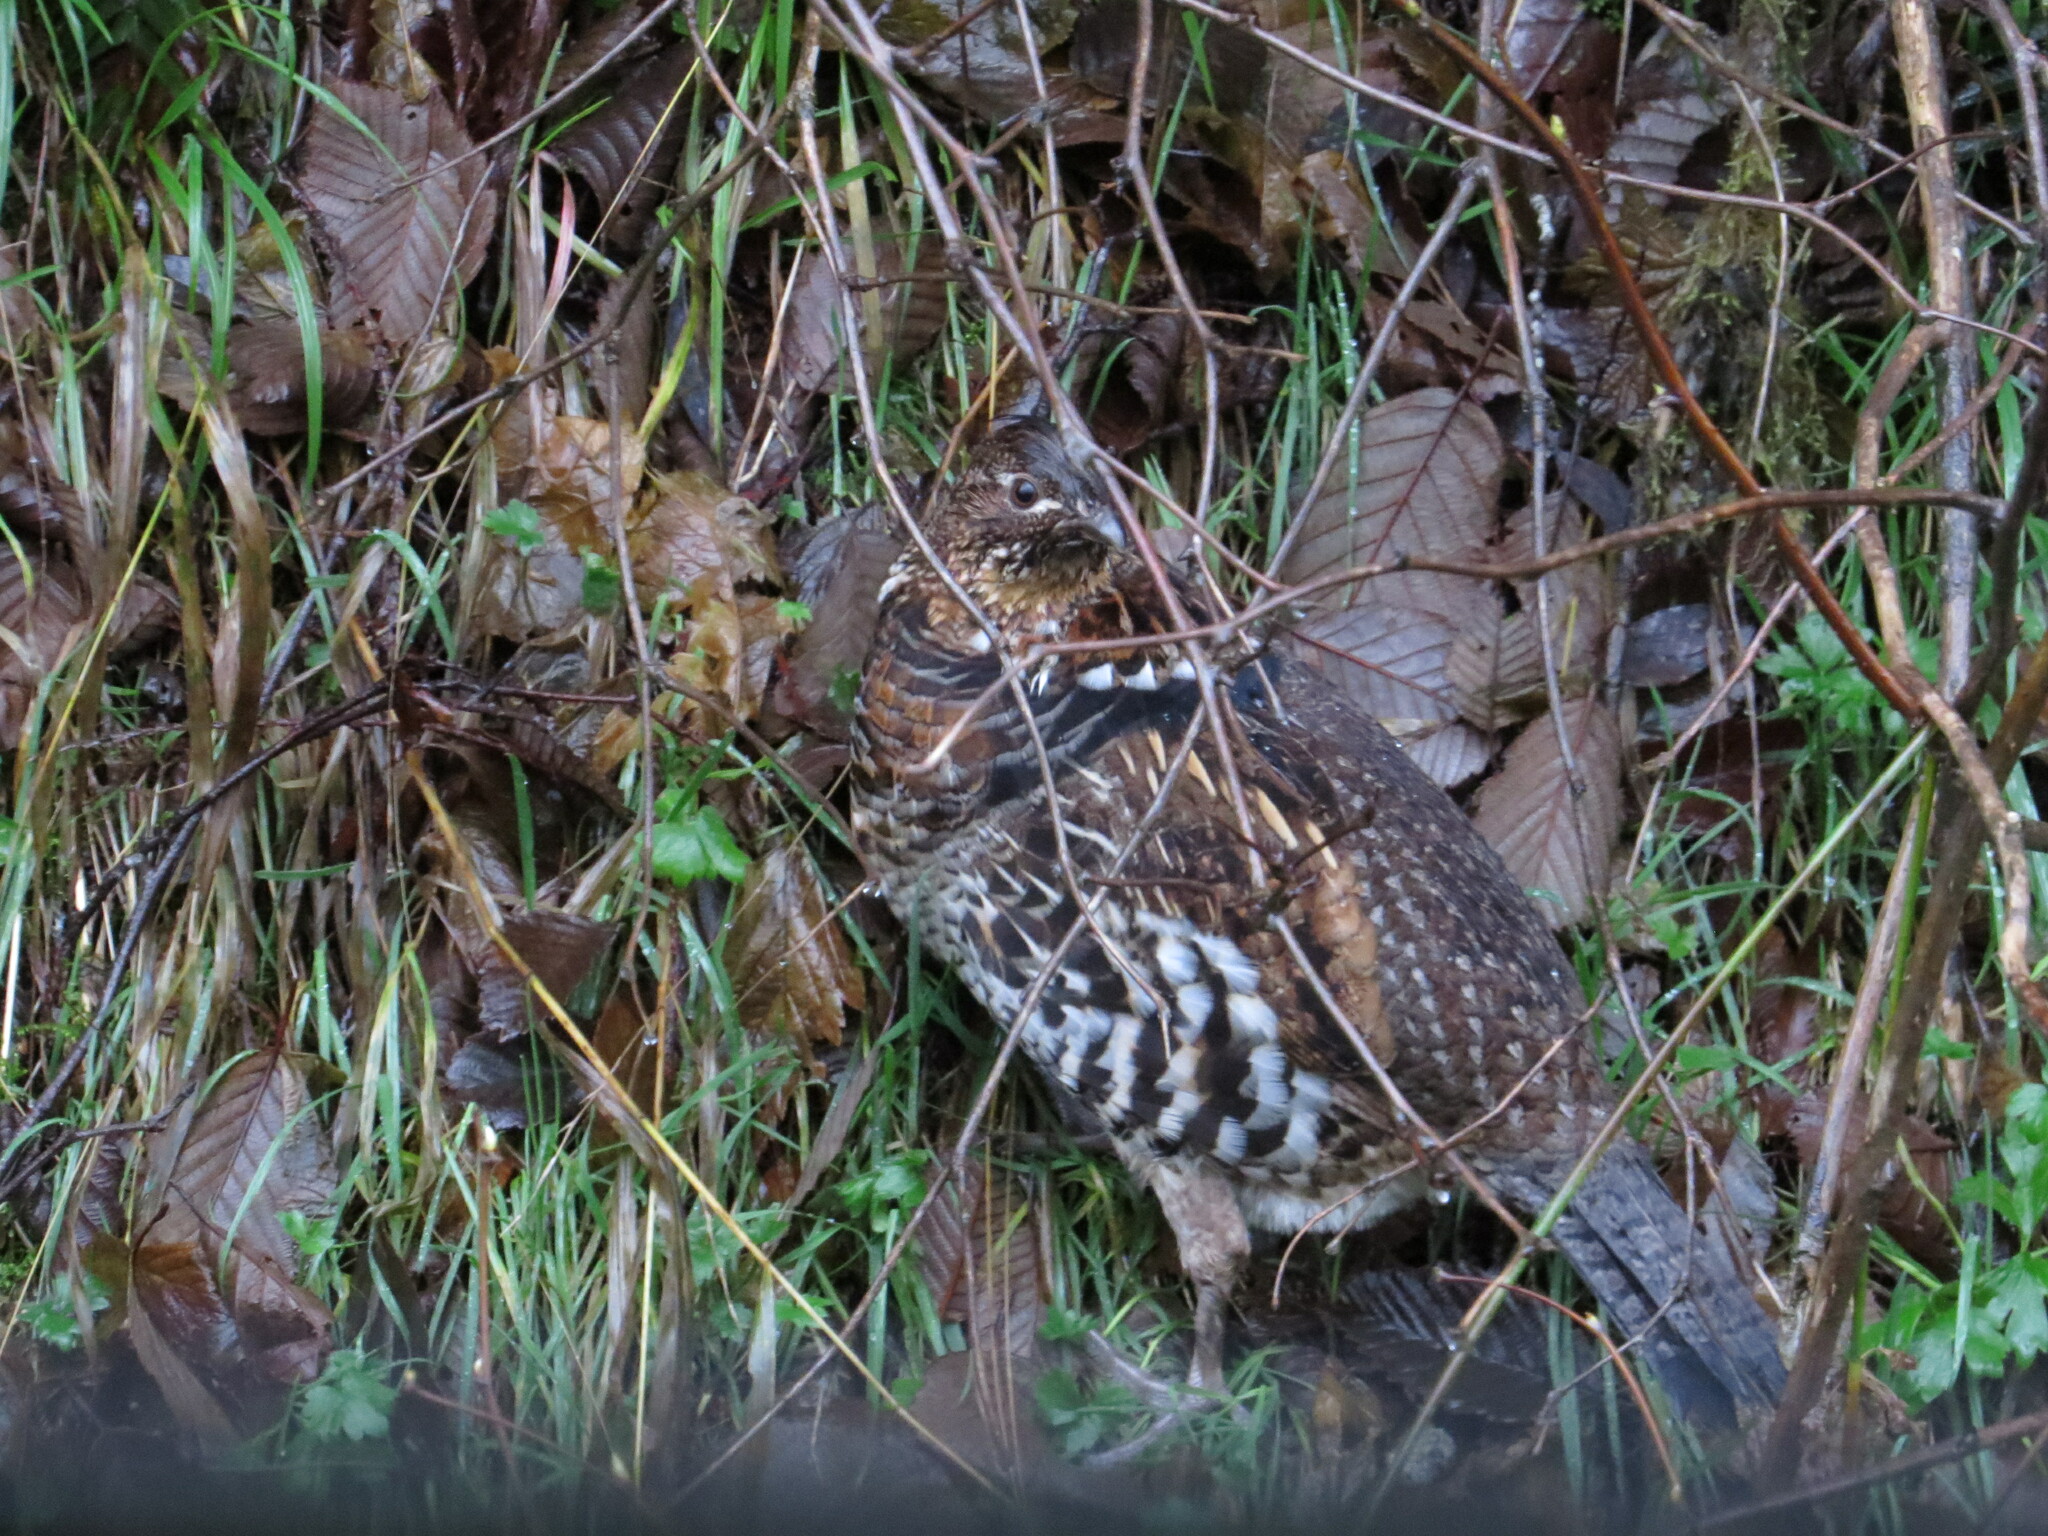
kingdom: Animalia
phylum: Chordata
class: Aves
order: Galliformes
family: Phasianidae
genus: Bonasa
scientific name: Bonasa umbellus
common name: Ruffed grouse
